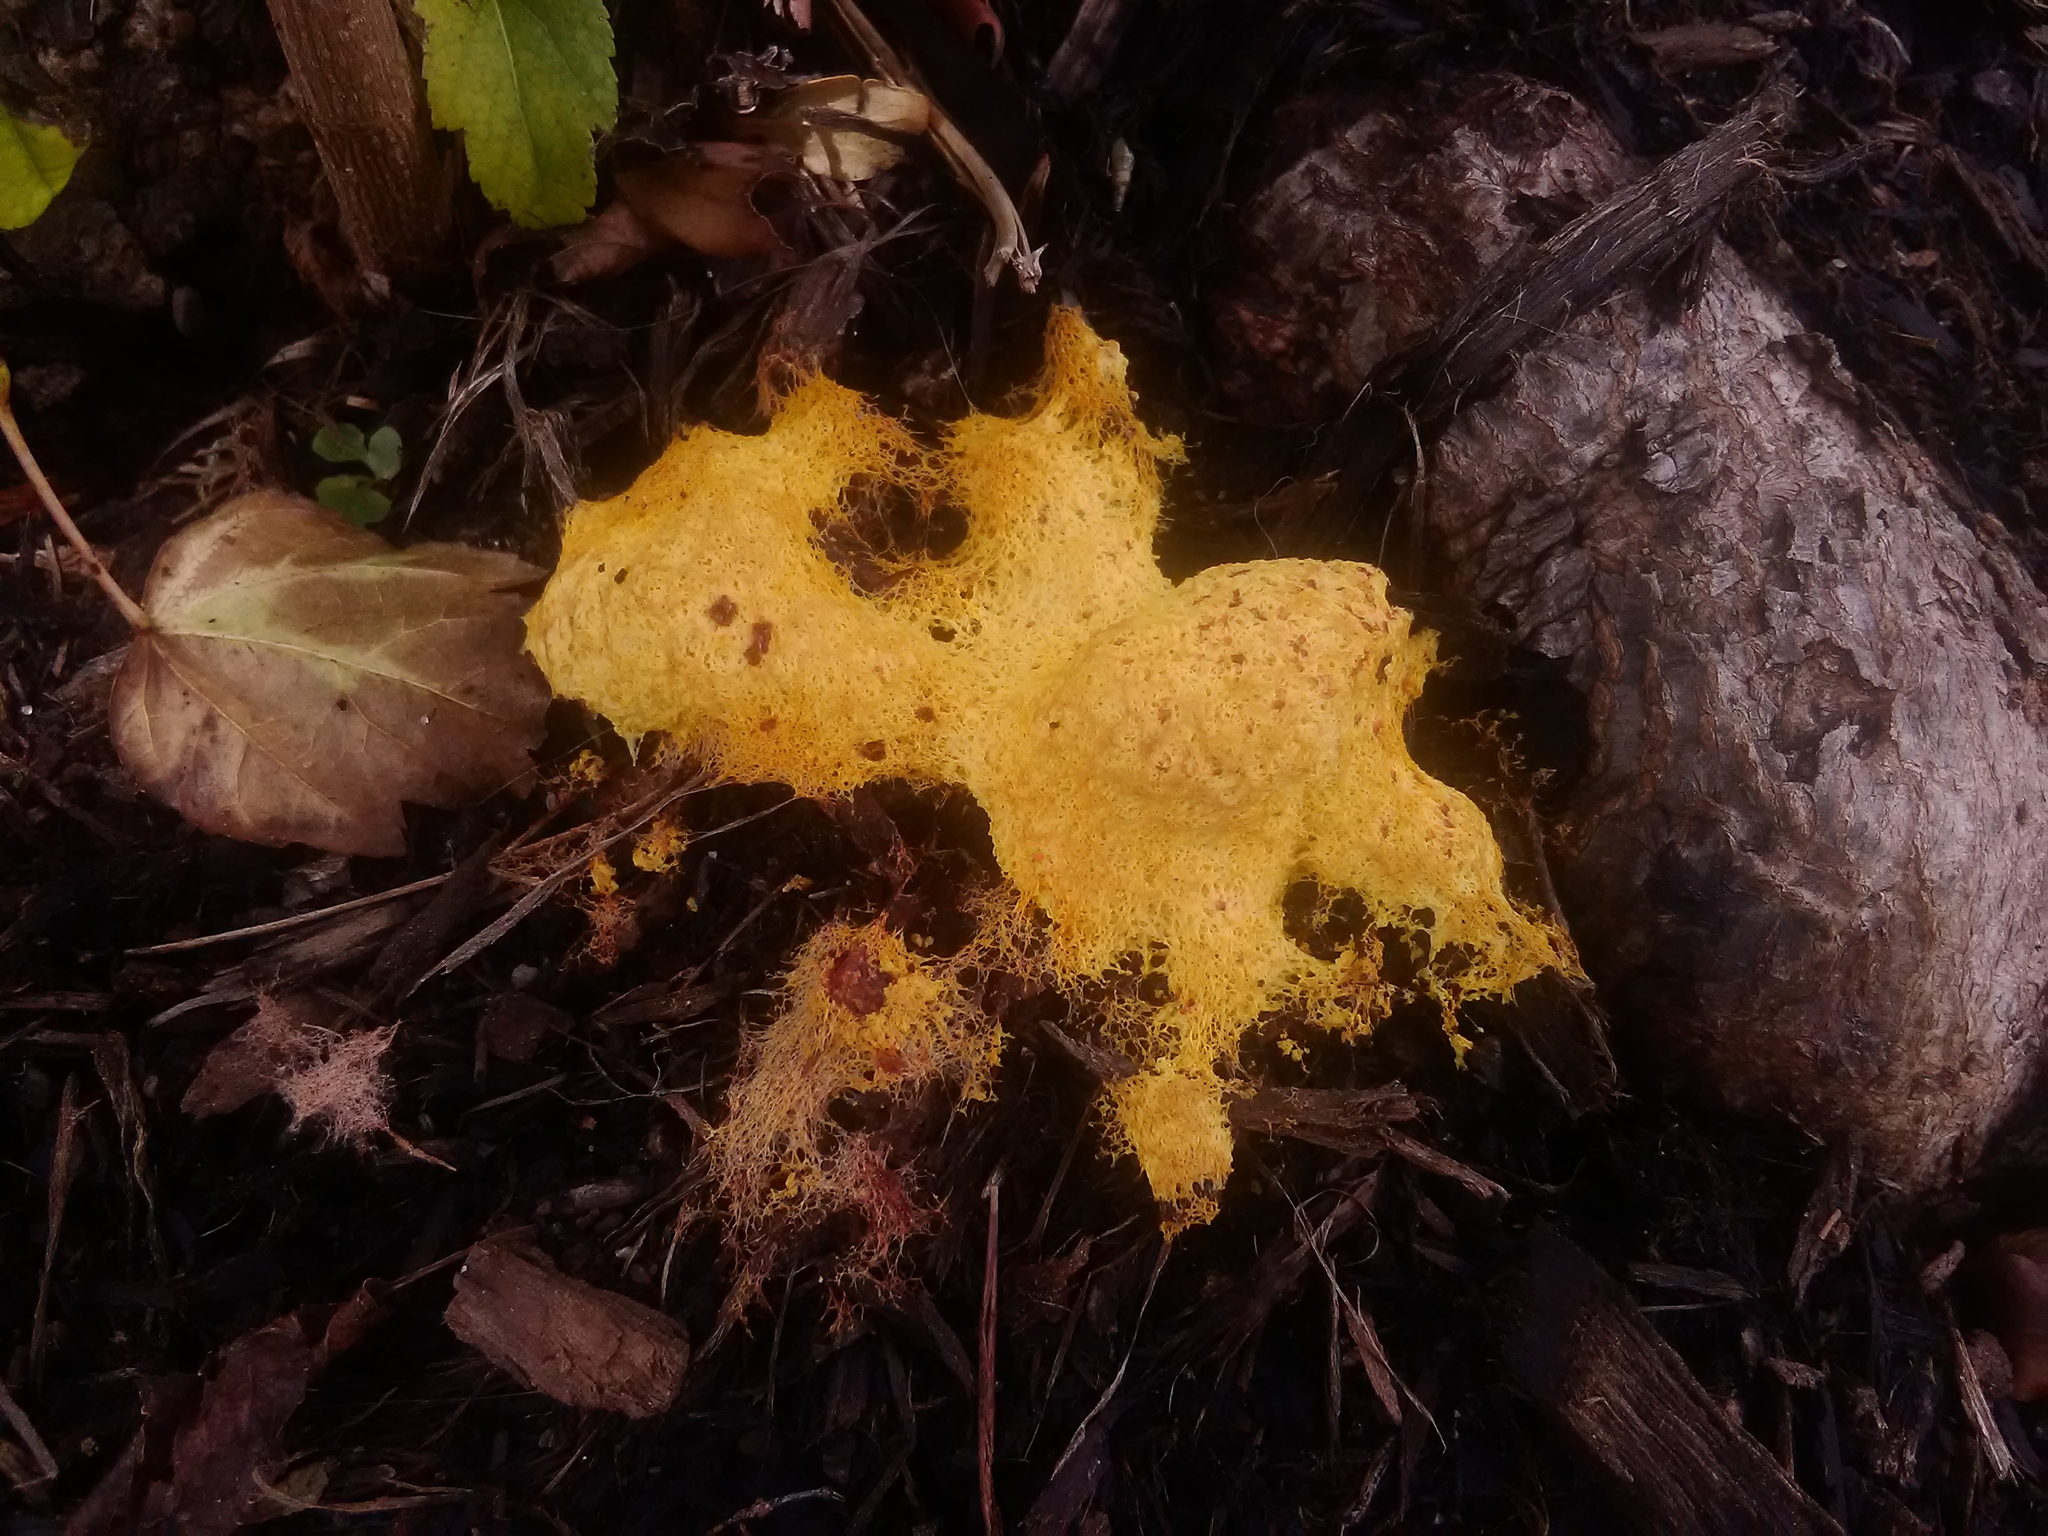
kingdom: Protozoa
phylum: Mycetozoa
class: Myxomycetes
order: Physarales
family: Physaraceae
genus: Fuligo
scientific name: Fuligo septica
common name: Dog vomit slime mold
